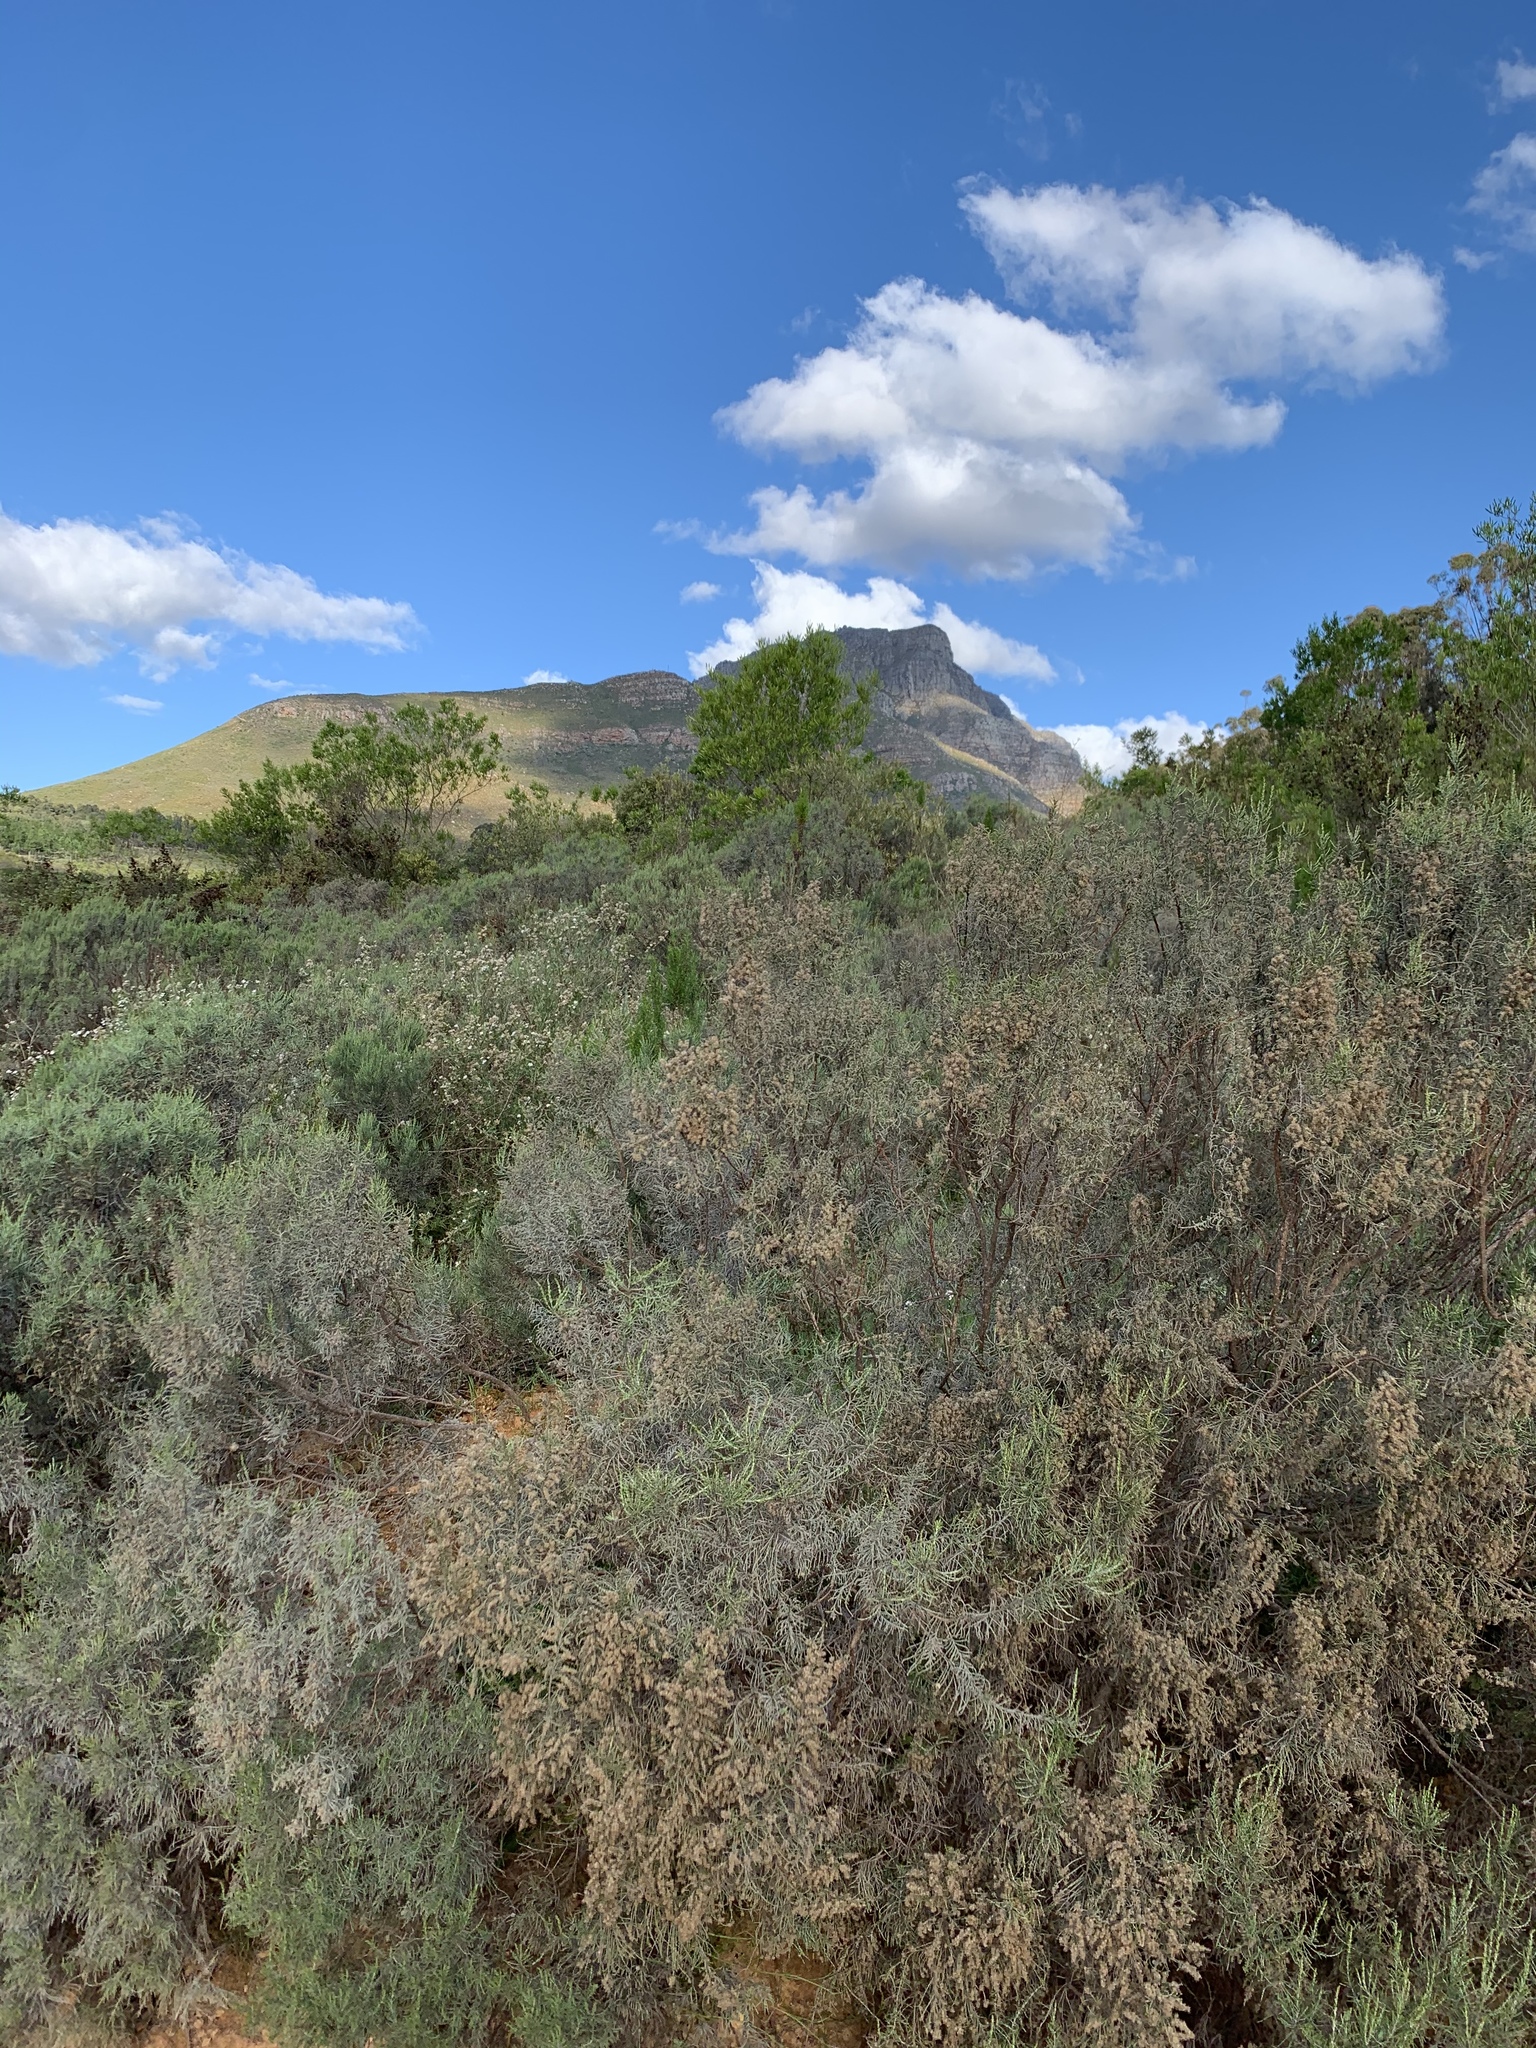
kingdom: Plantae
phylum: Tracheophyta
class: Magnoliopsida
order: Asterales
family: Asteraceae
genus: Dicerothamnus
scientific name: Dicerothamnus rhinocerotis
